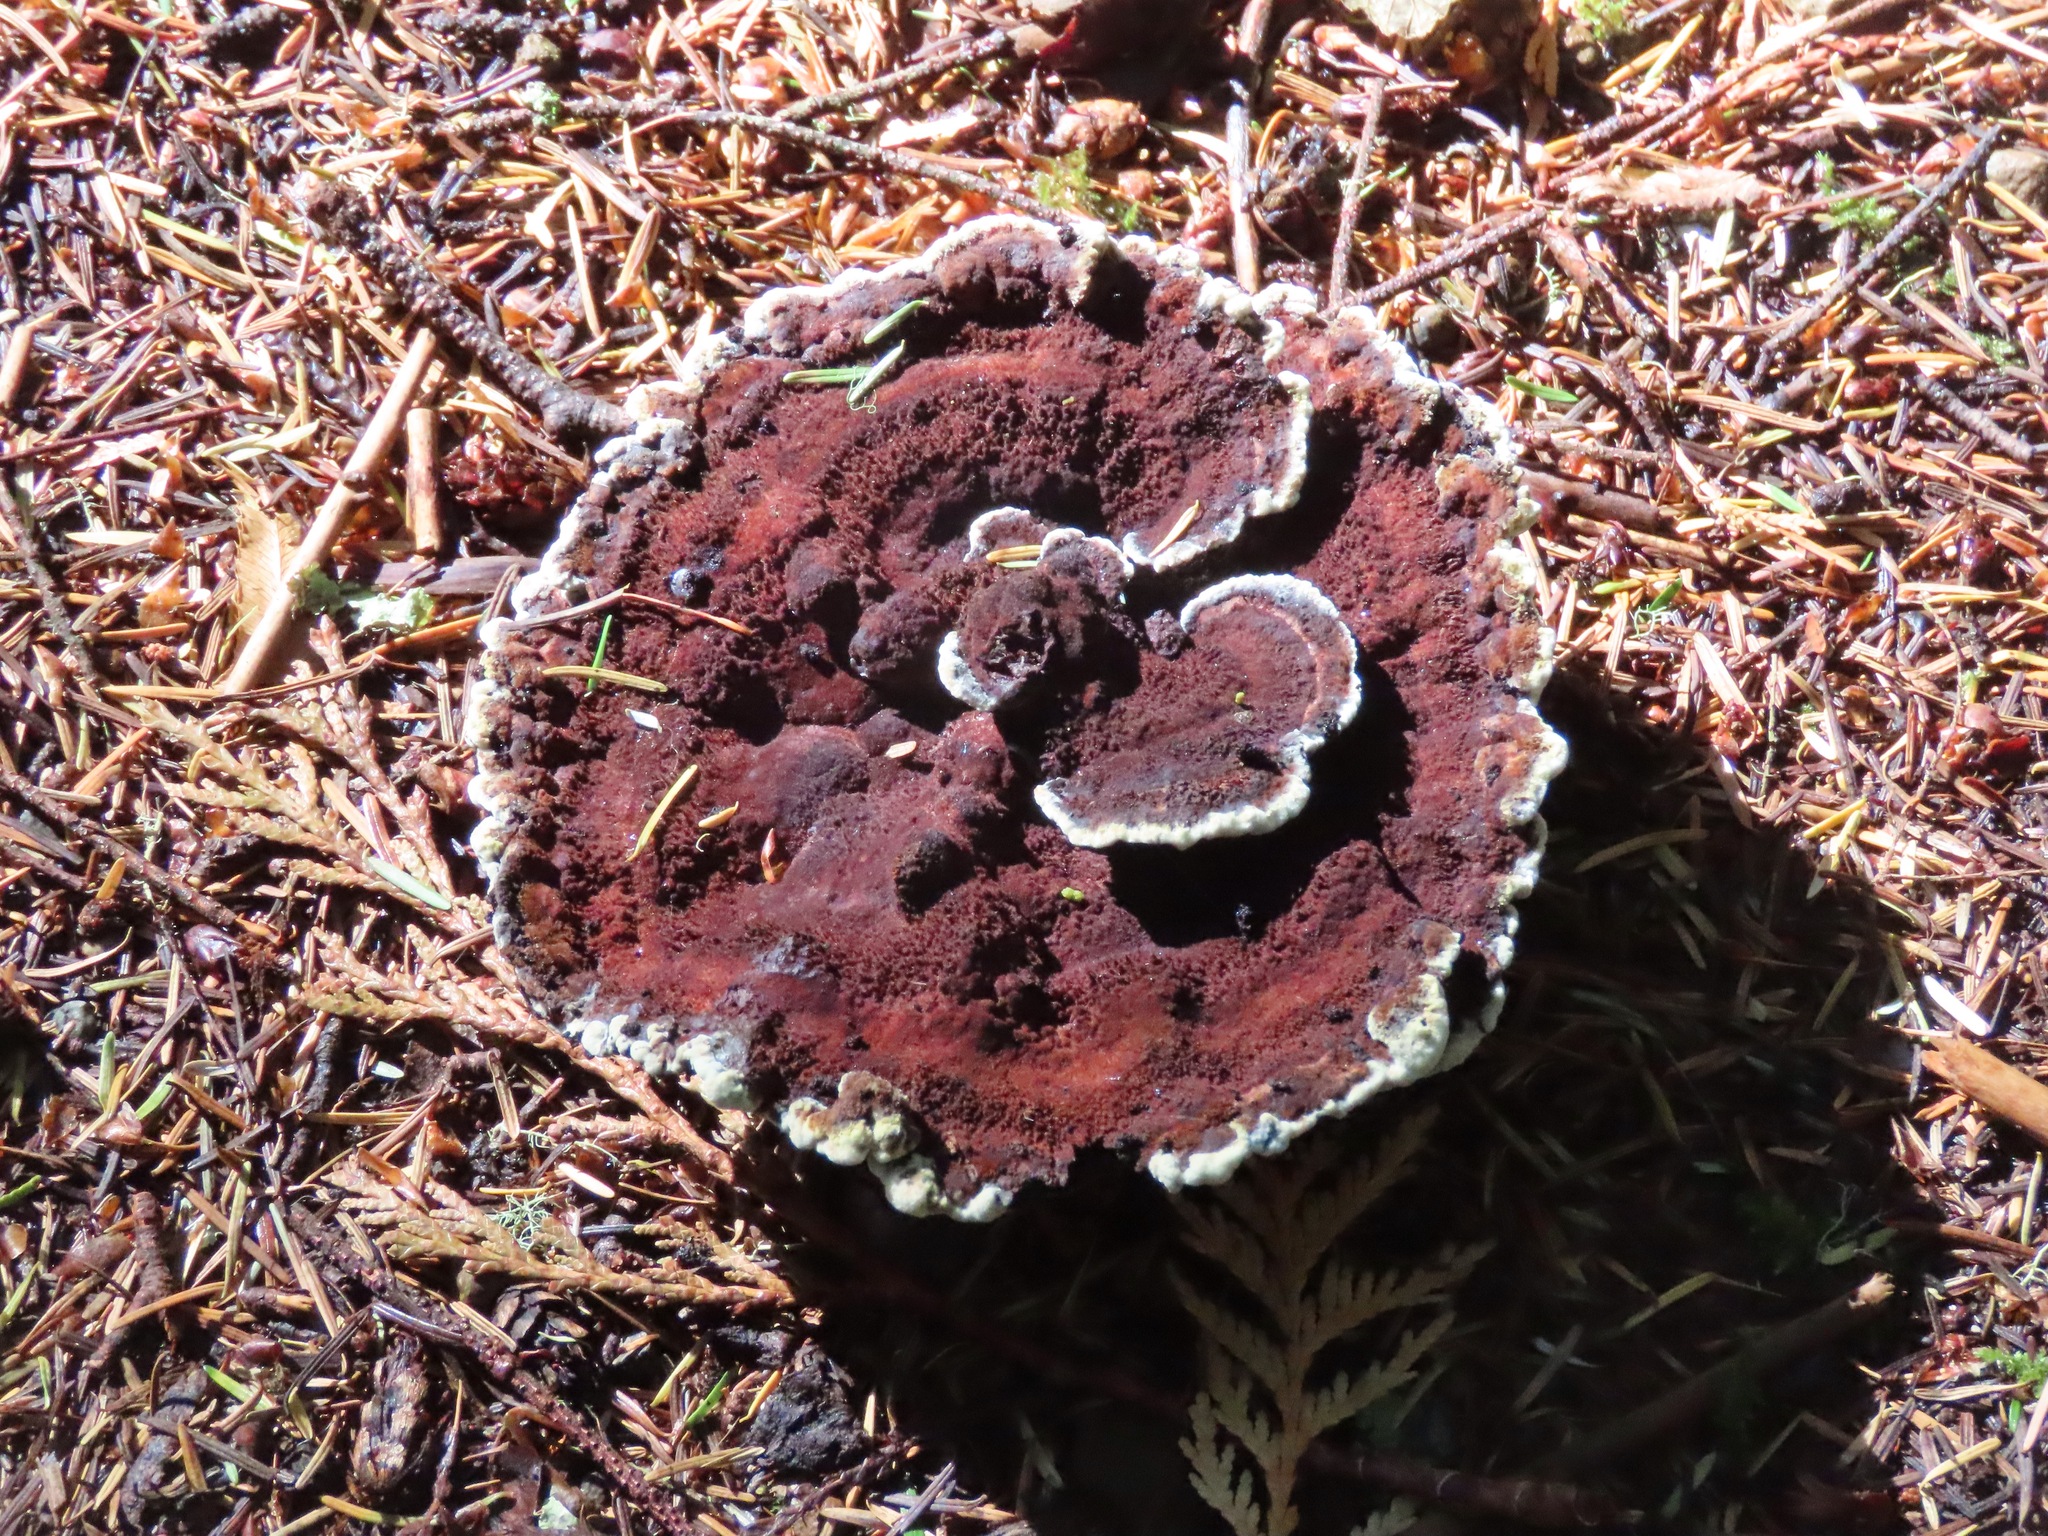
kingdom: Fungi
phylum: Basidiomycota
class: Agaricomycetes
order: Polyporales
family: Laetiporaceae
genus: Phaeolus
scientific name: Phaeolus schweinitzii
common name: Dyer's mazegill
